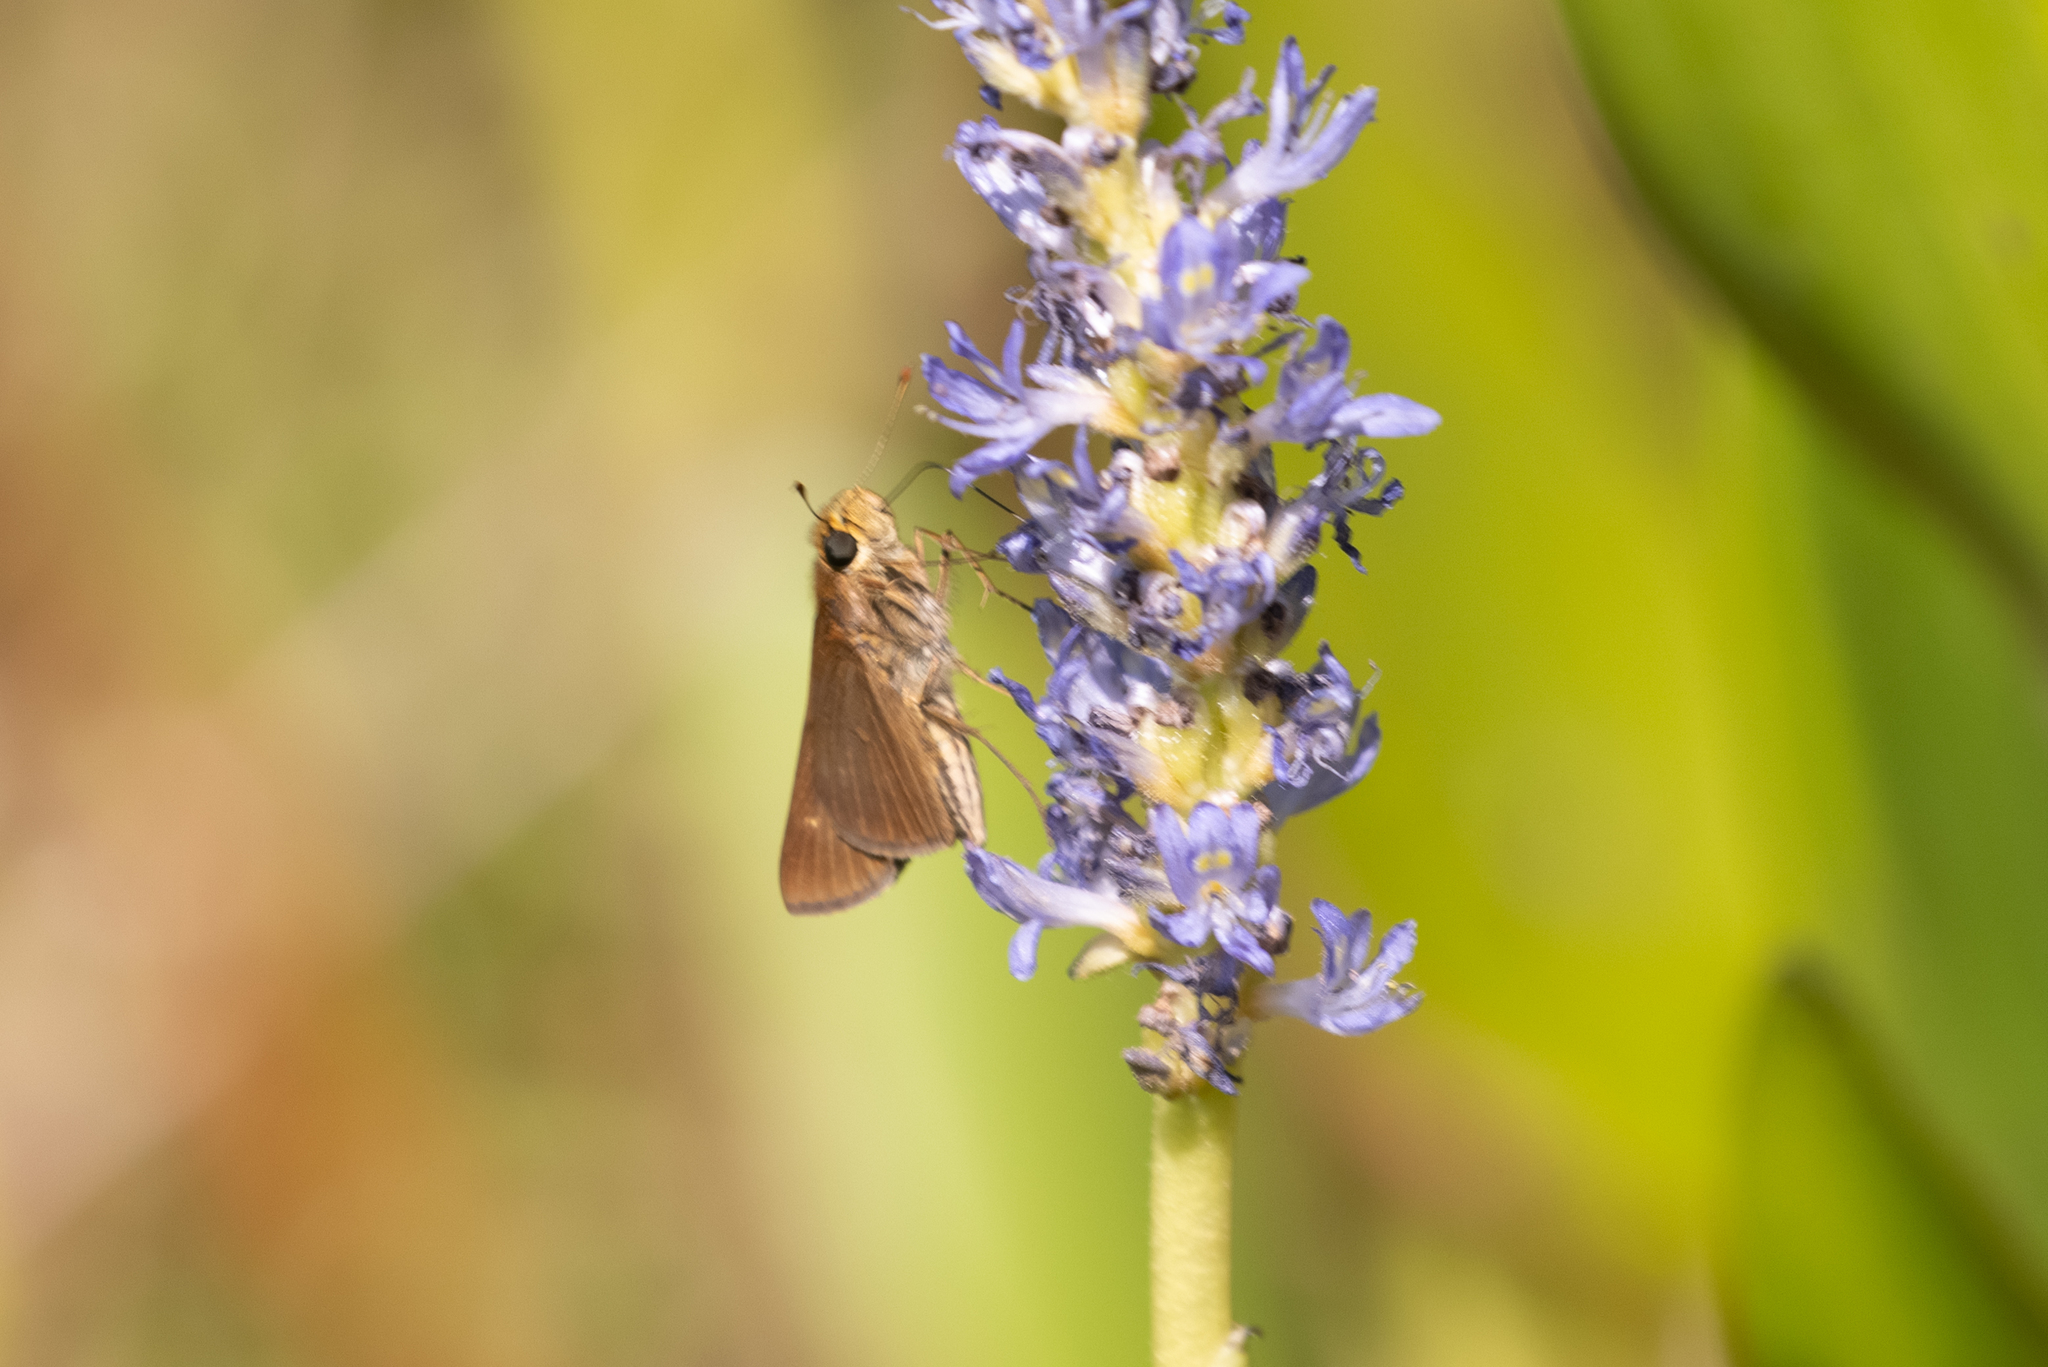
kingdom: Animalia
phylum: Arthropoda
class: Insecta
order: Lepidoptera
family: Hesperiidae
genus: Panoquina
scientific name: Panoquina ocola
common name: Ocola skipper
